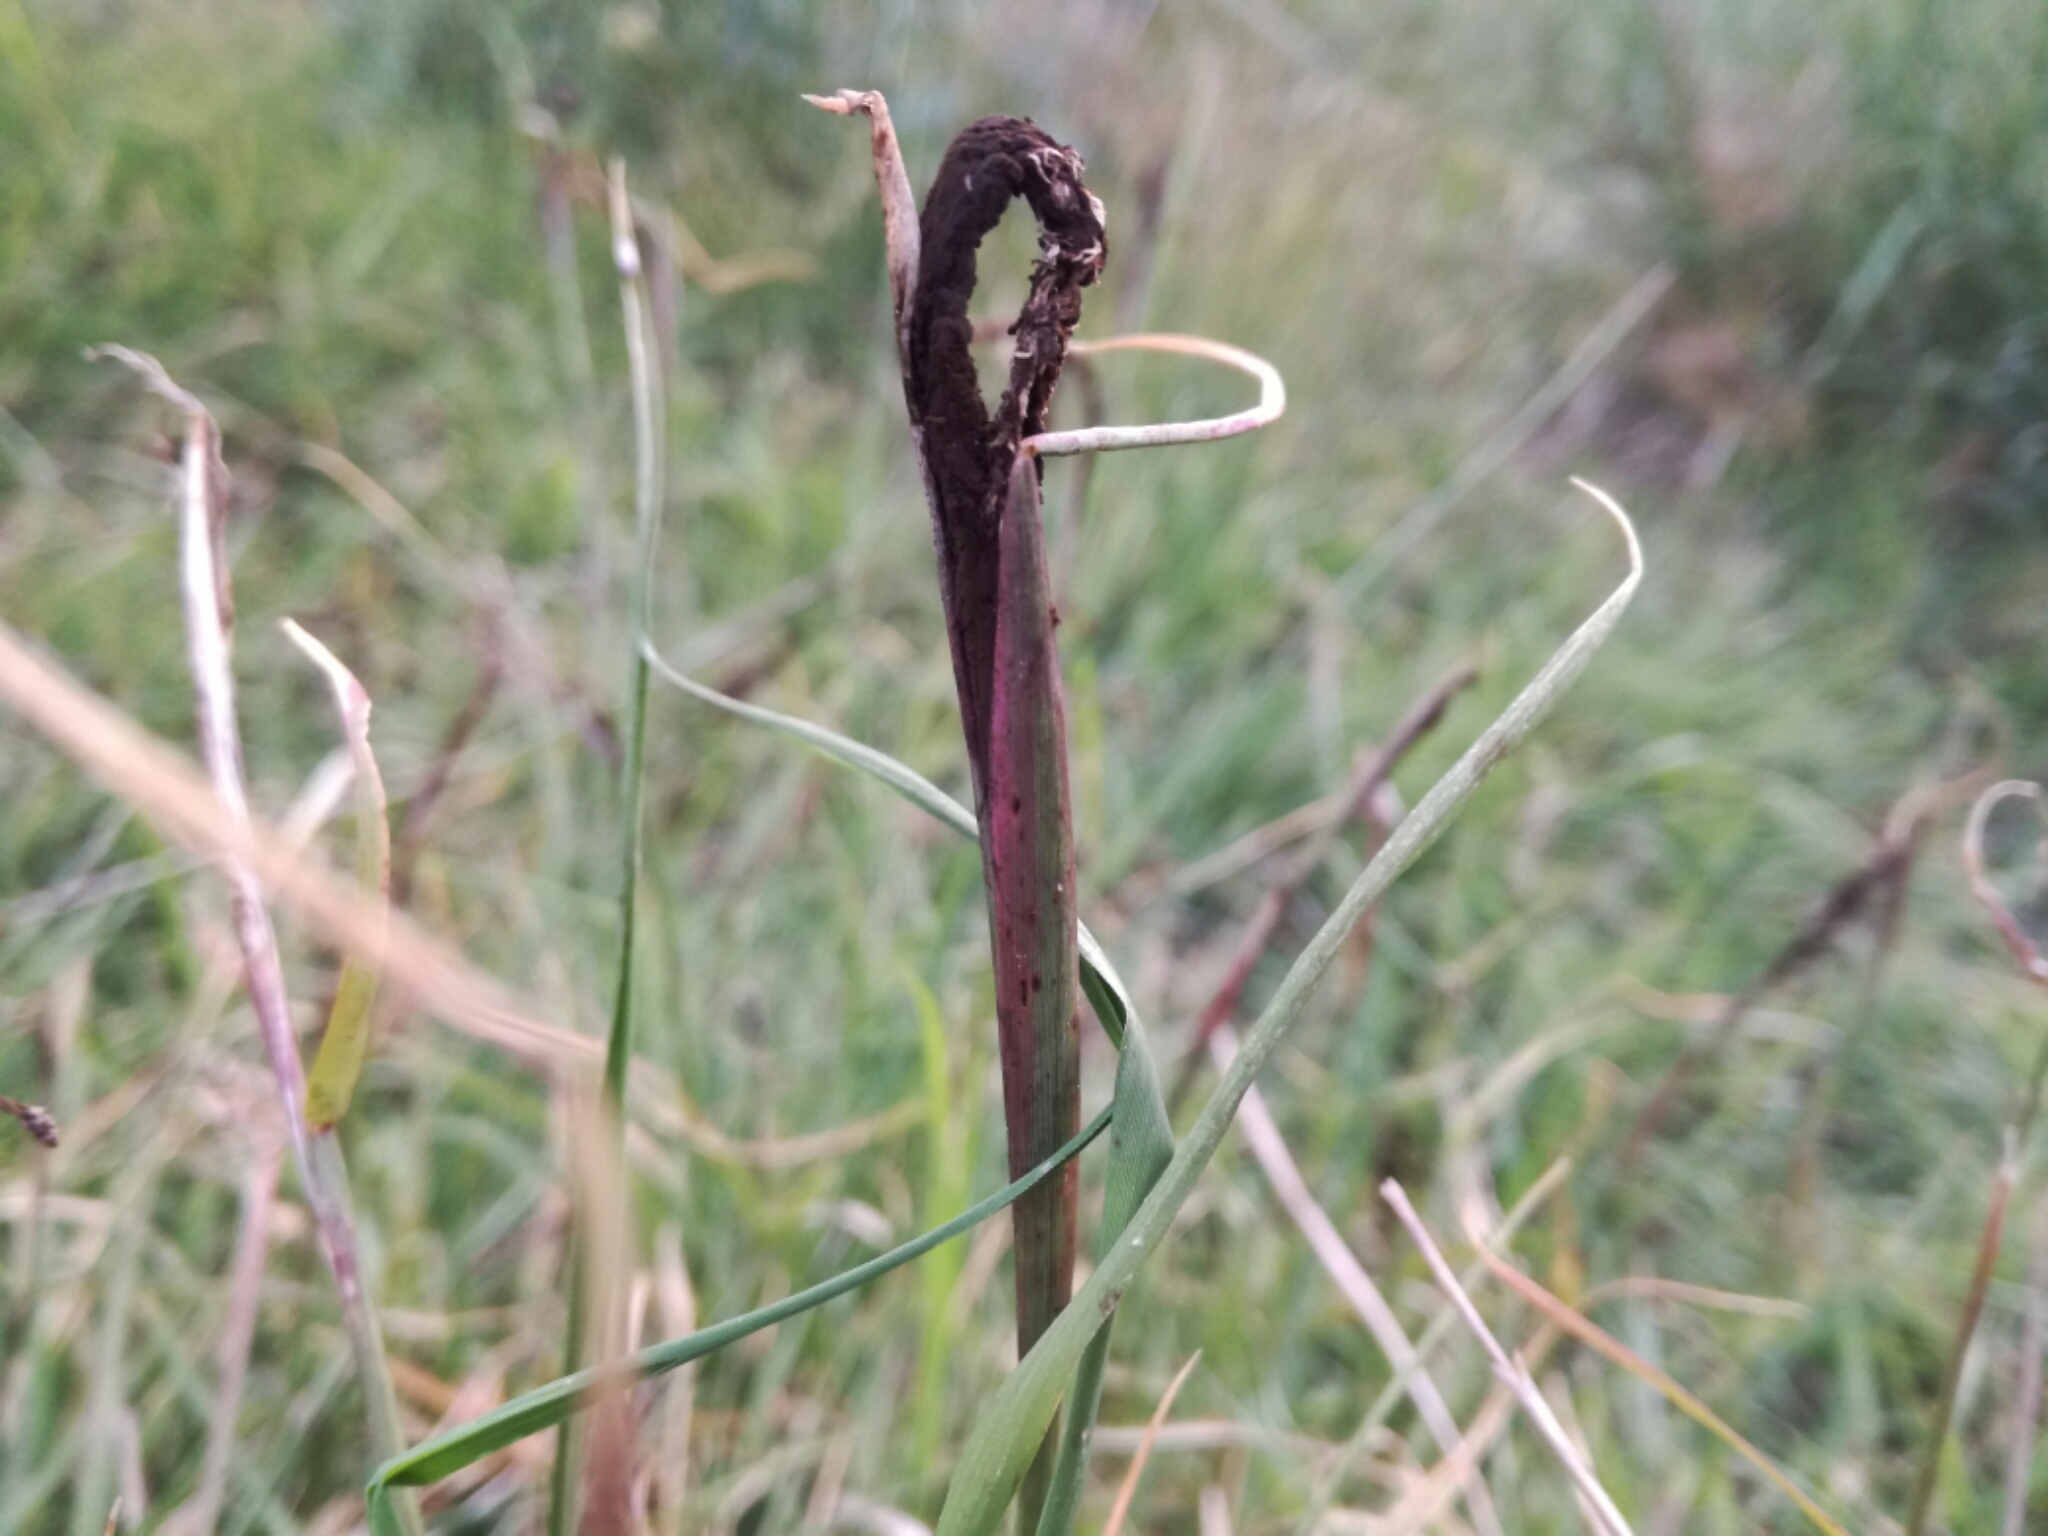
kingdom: Fungi
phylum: Basidiomycota
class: Ustilaginomycetes
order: Ustilaginales
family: Ustilaginaceae
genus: Ustilago
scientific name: Ustilago cynodontis
